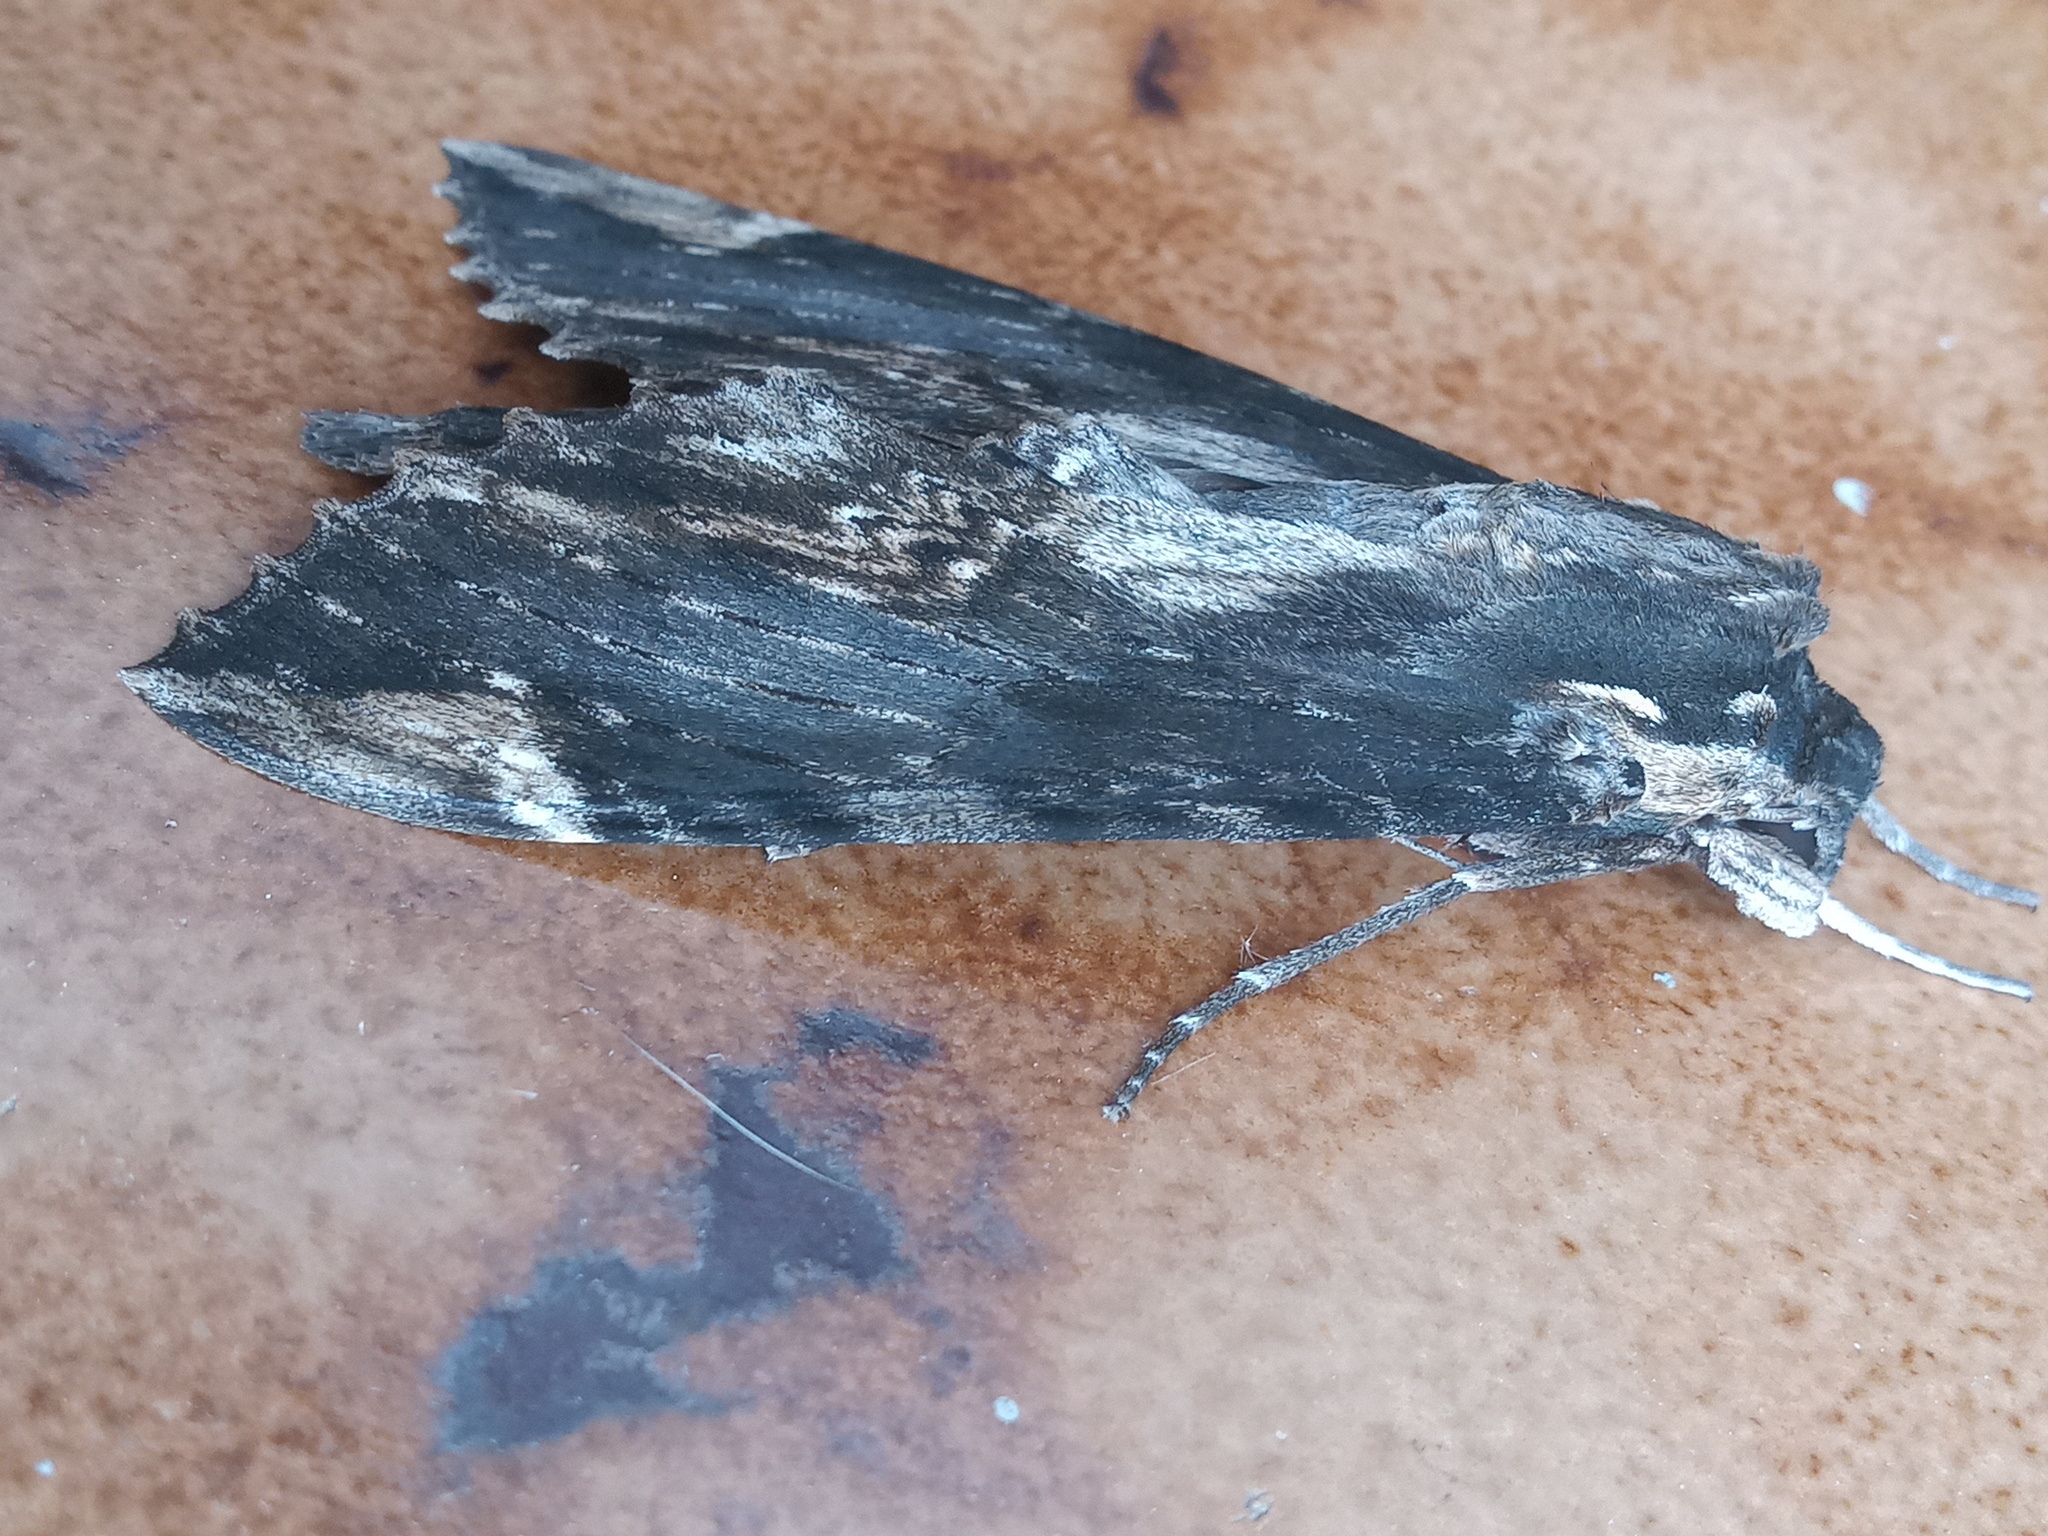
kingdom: Animalia
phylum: Arthropoda
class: Insecta
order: Lepidoptera
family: Sphingidae
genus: Erinnyis
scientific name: Erinnyis lassauxi
